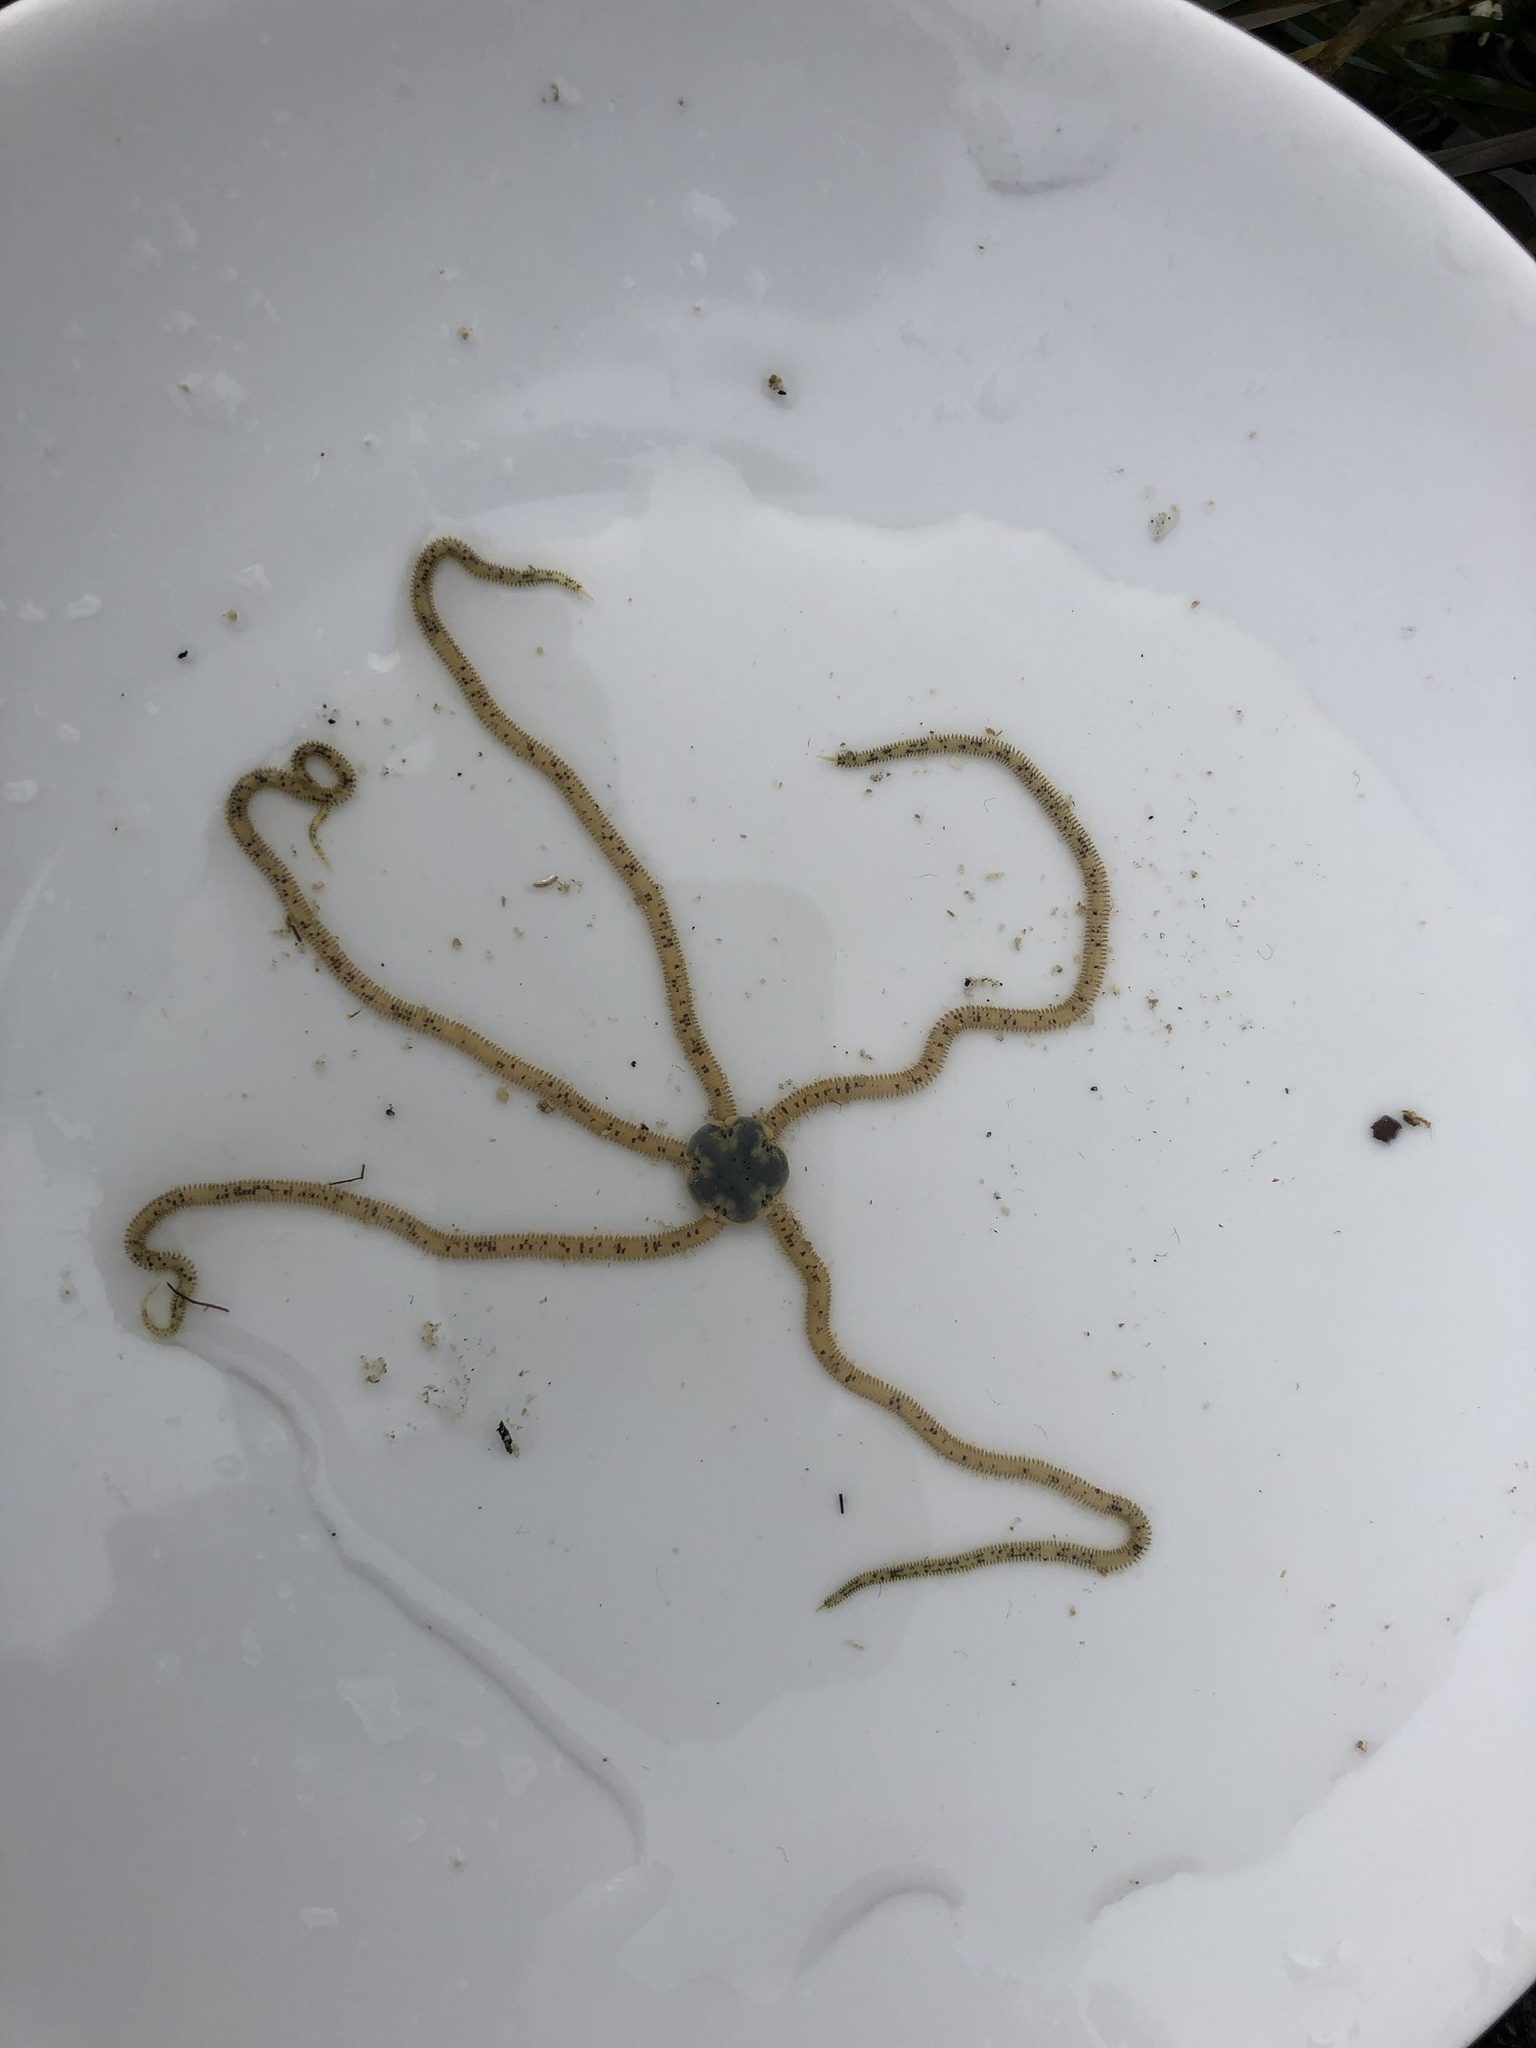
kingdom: Animalia
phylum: Echinodermata
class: Ophiuroidea
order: Amphilepidida
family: Amphiuridae
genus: Amphiodia
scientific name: Amphiodia occidentalis
